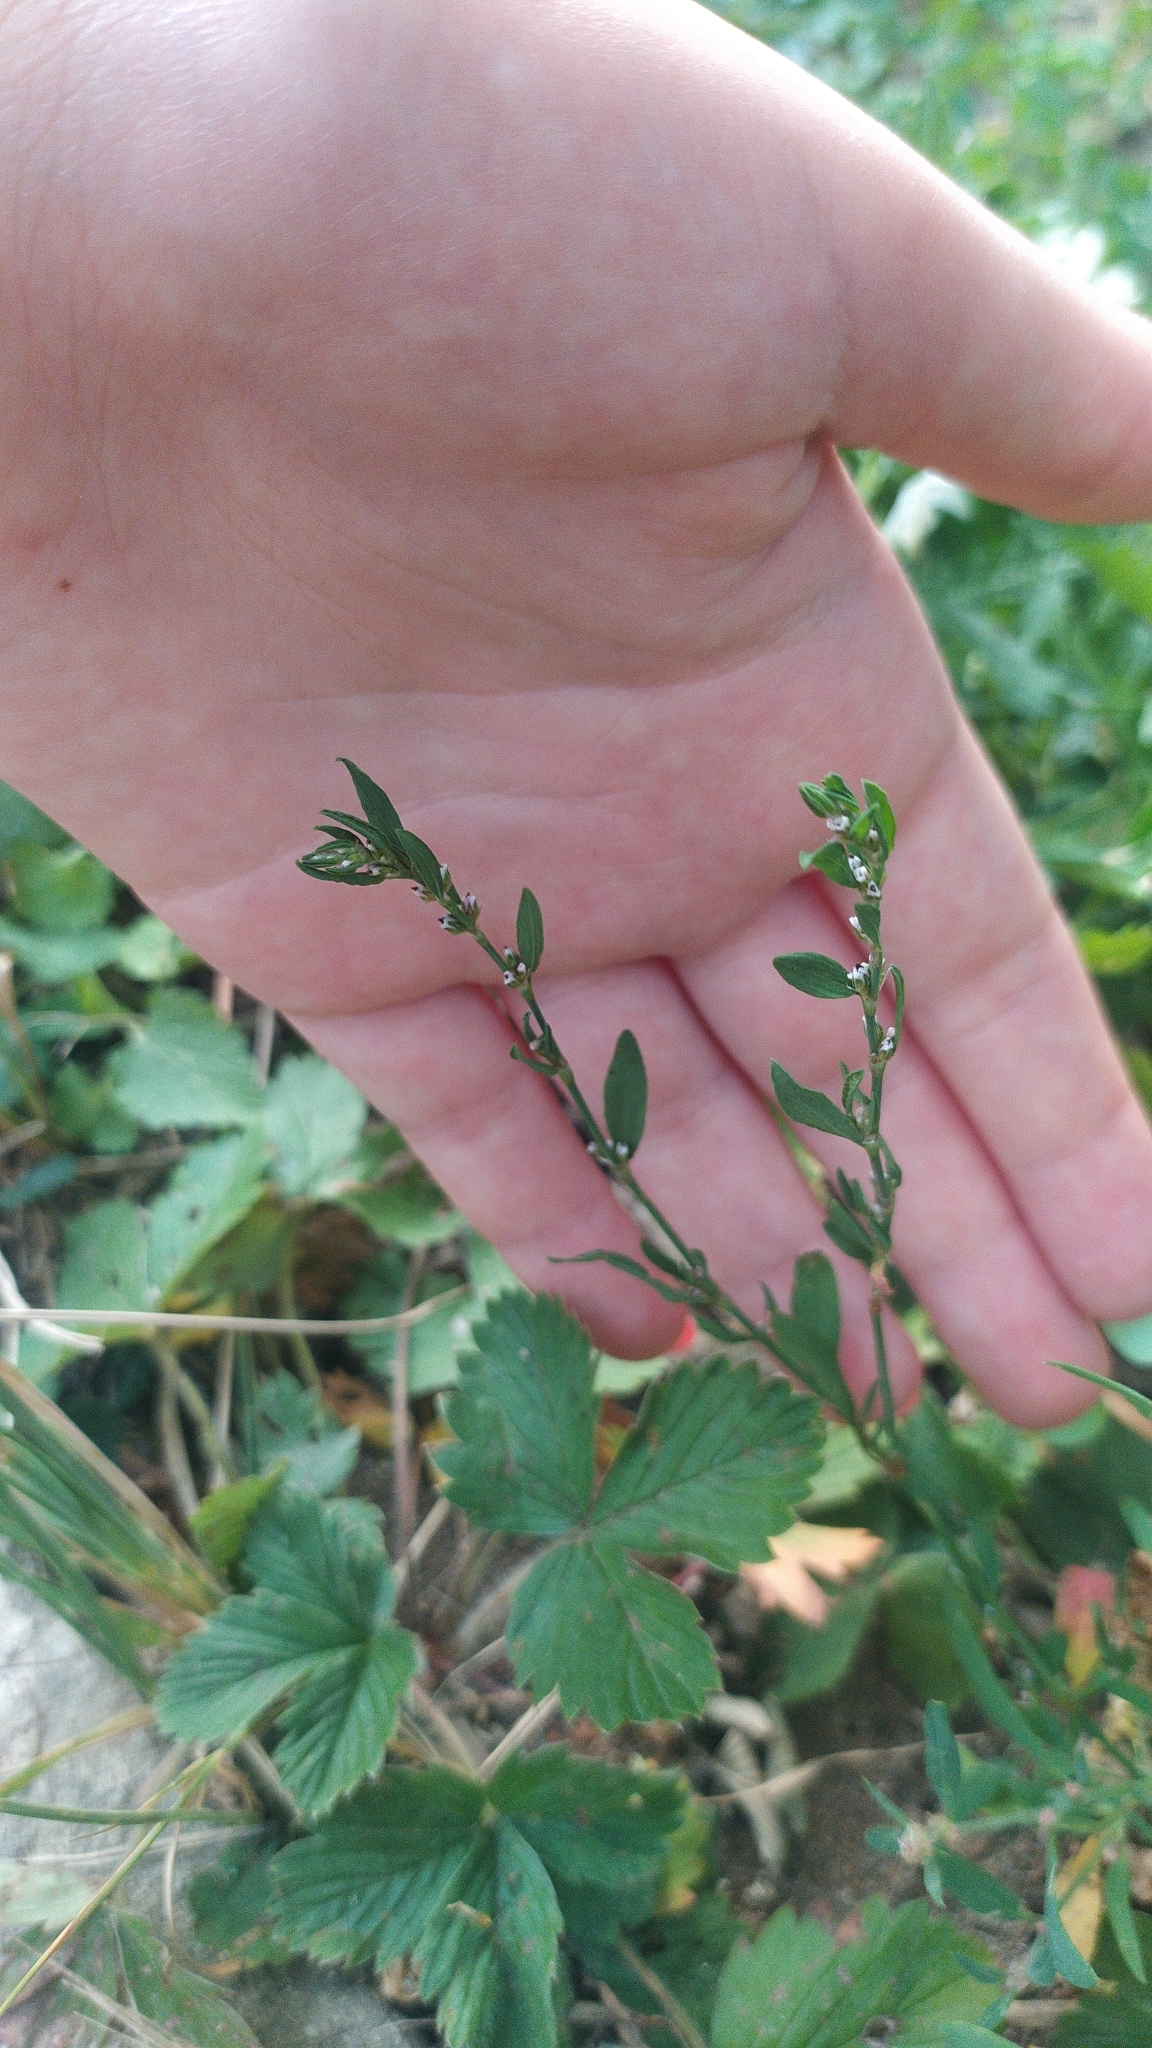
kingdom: Plantae
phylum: Tracheophyta
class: Magnoliopsida
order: Caryophyllales
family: Polygonaceae
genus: Polygonum
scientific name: Polygonum
